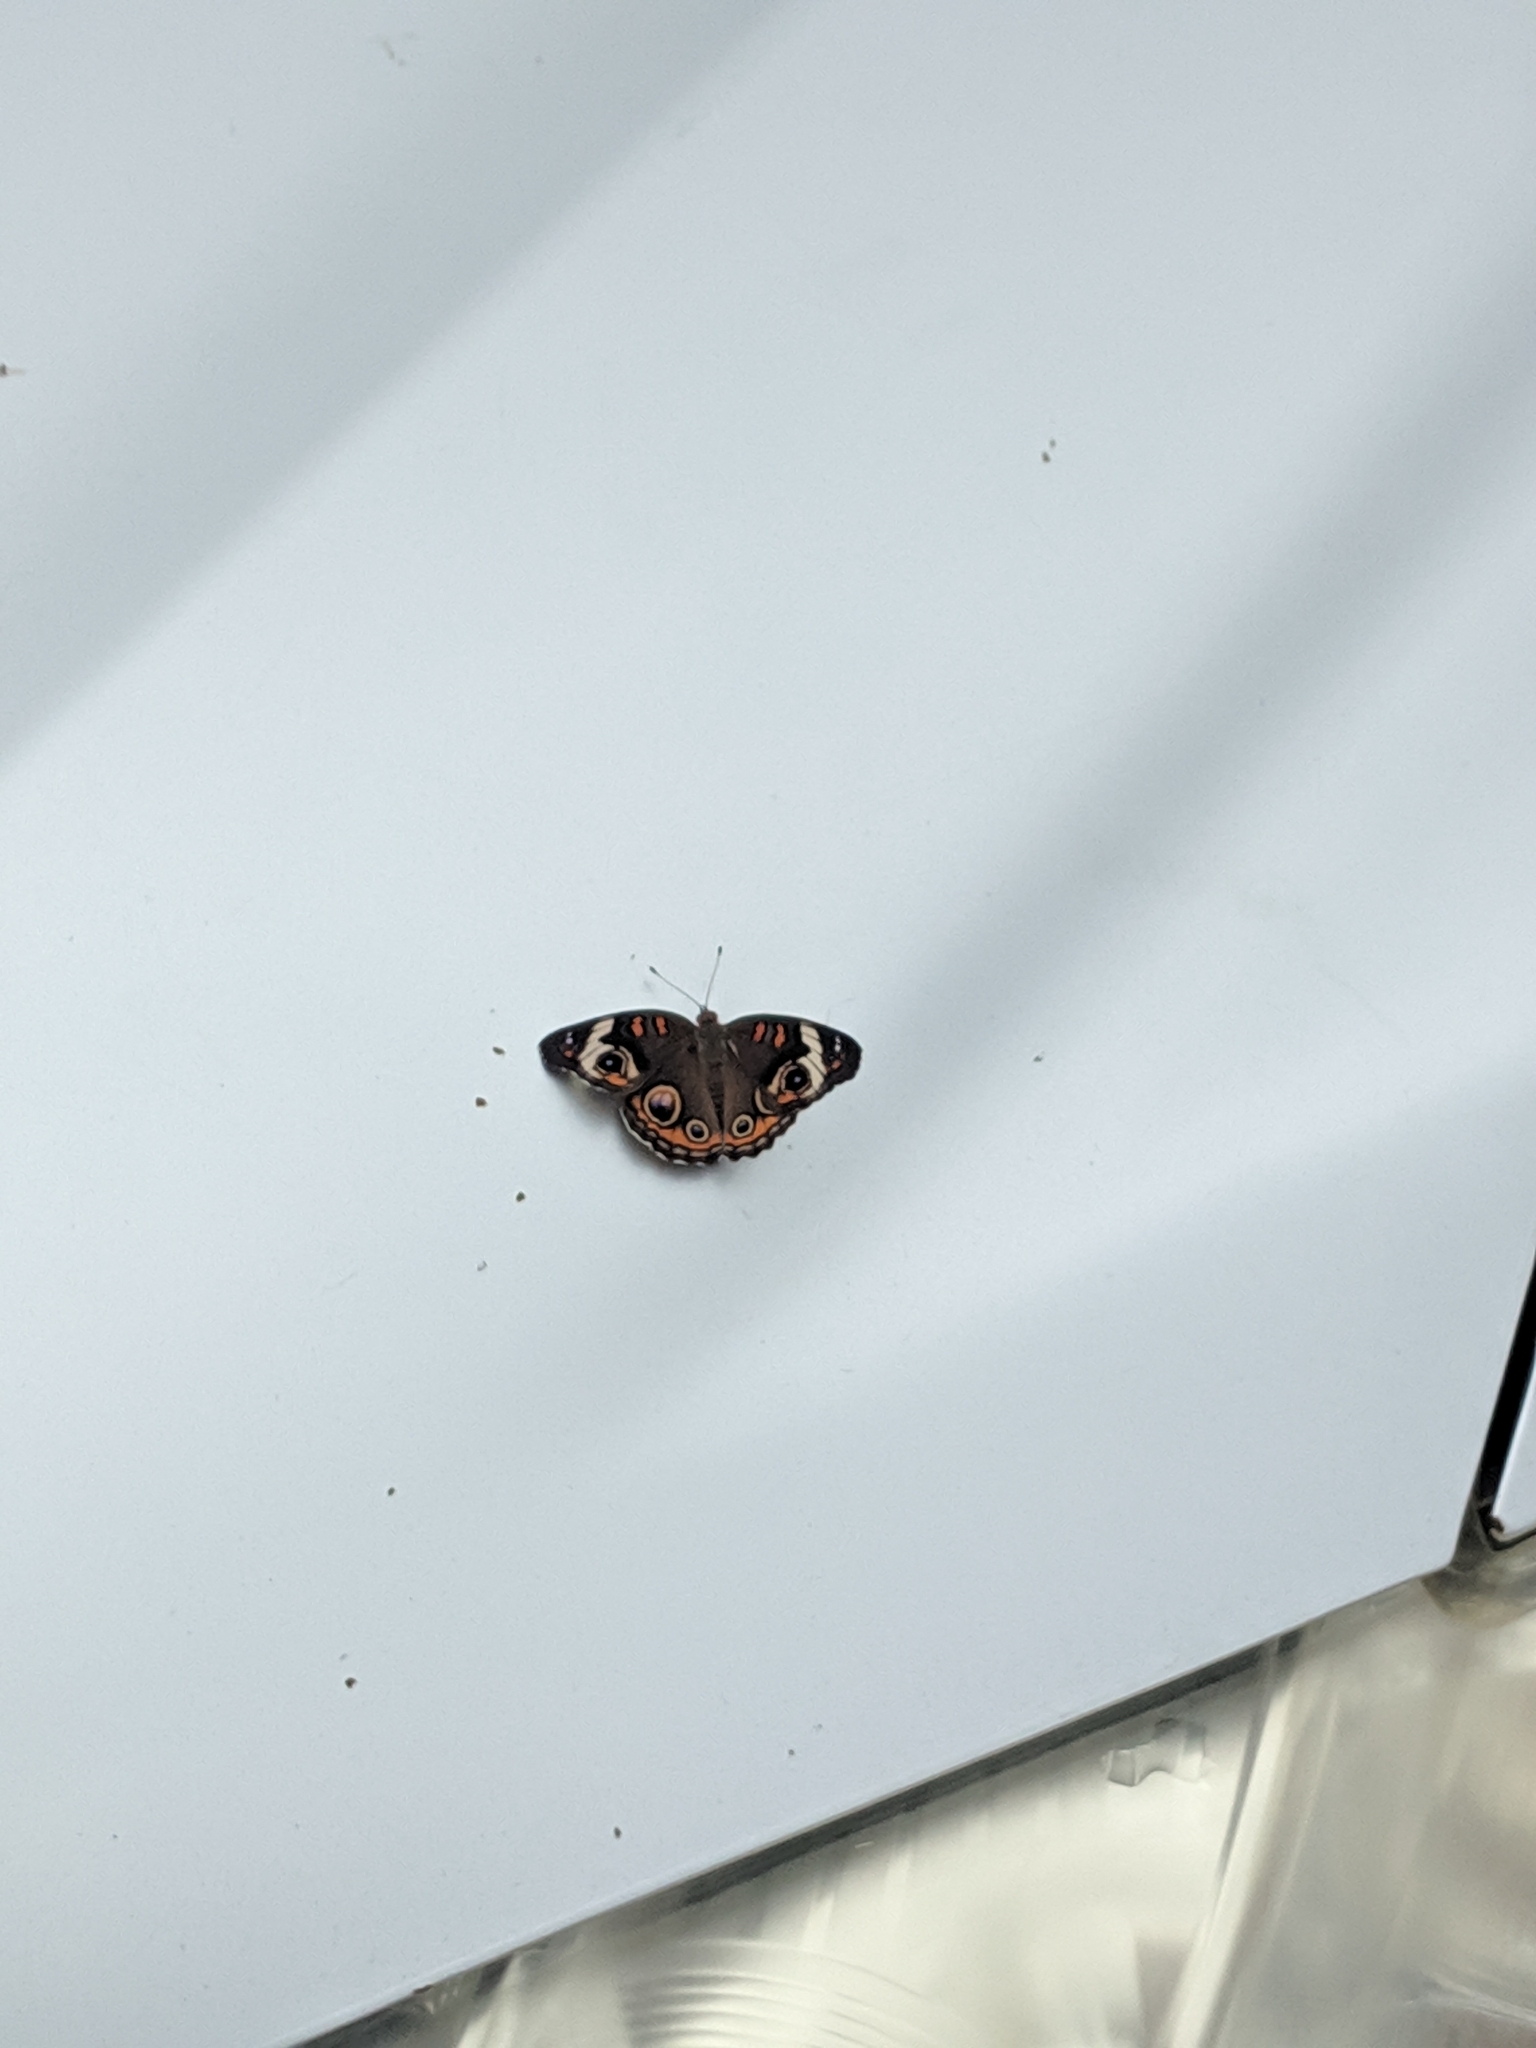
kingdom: Animalia
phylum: Arthropoda
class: Insecta
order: Lepidoptera
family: Nymphalidae
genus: Junonia
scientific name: Junonia coenia
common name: Common buckeye
